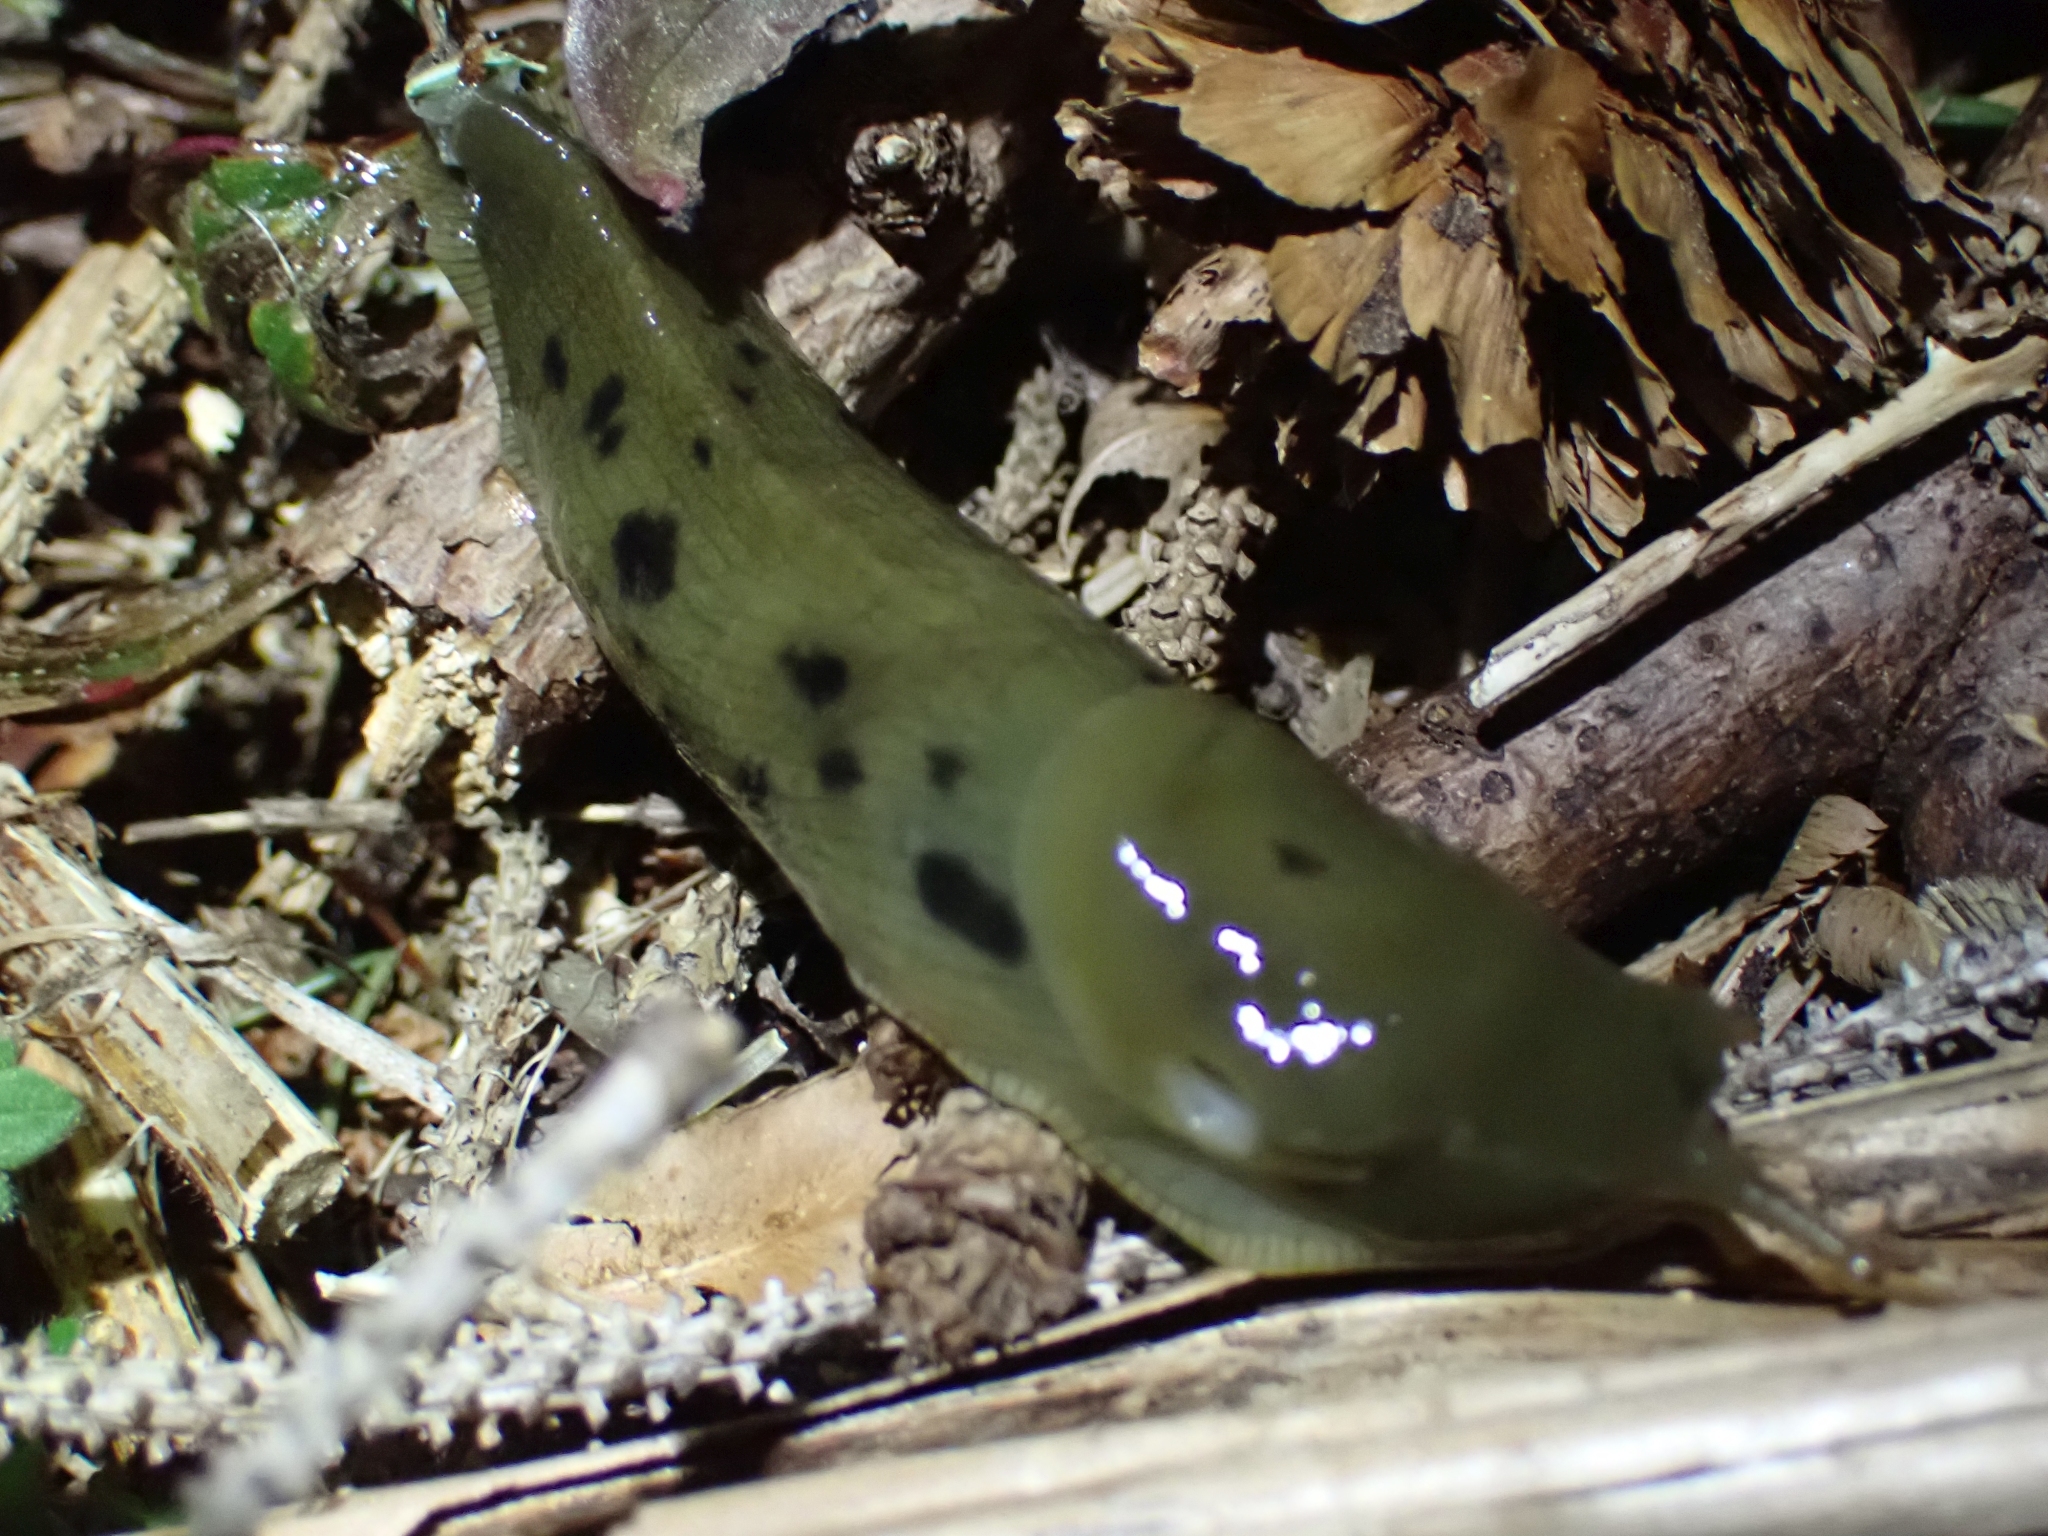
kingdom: Animalia
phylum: Mollusca
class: Gastropoda
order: Stylommatophora
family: Ariolimacidae
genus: Ariolimax
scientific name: Ariolimax columbianus
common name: Pacific banana slug
